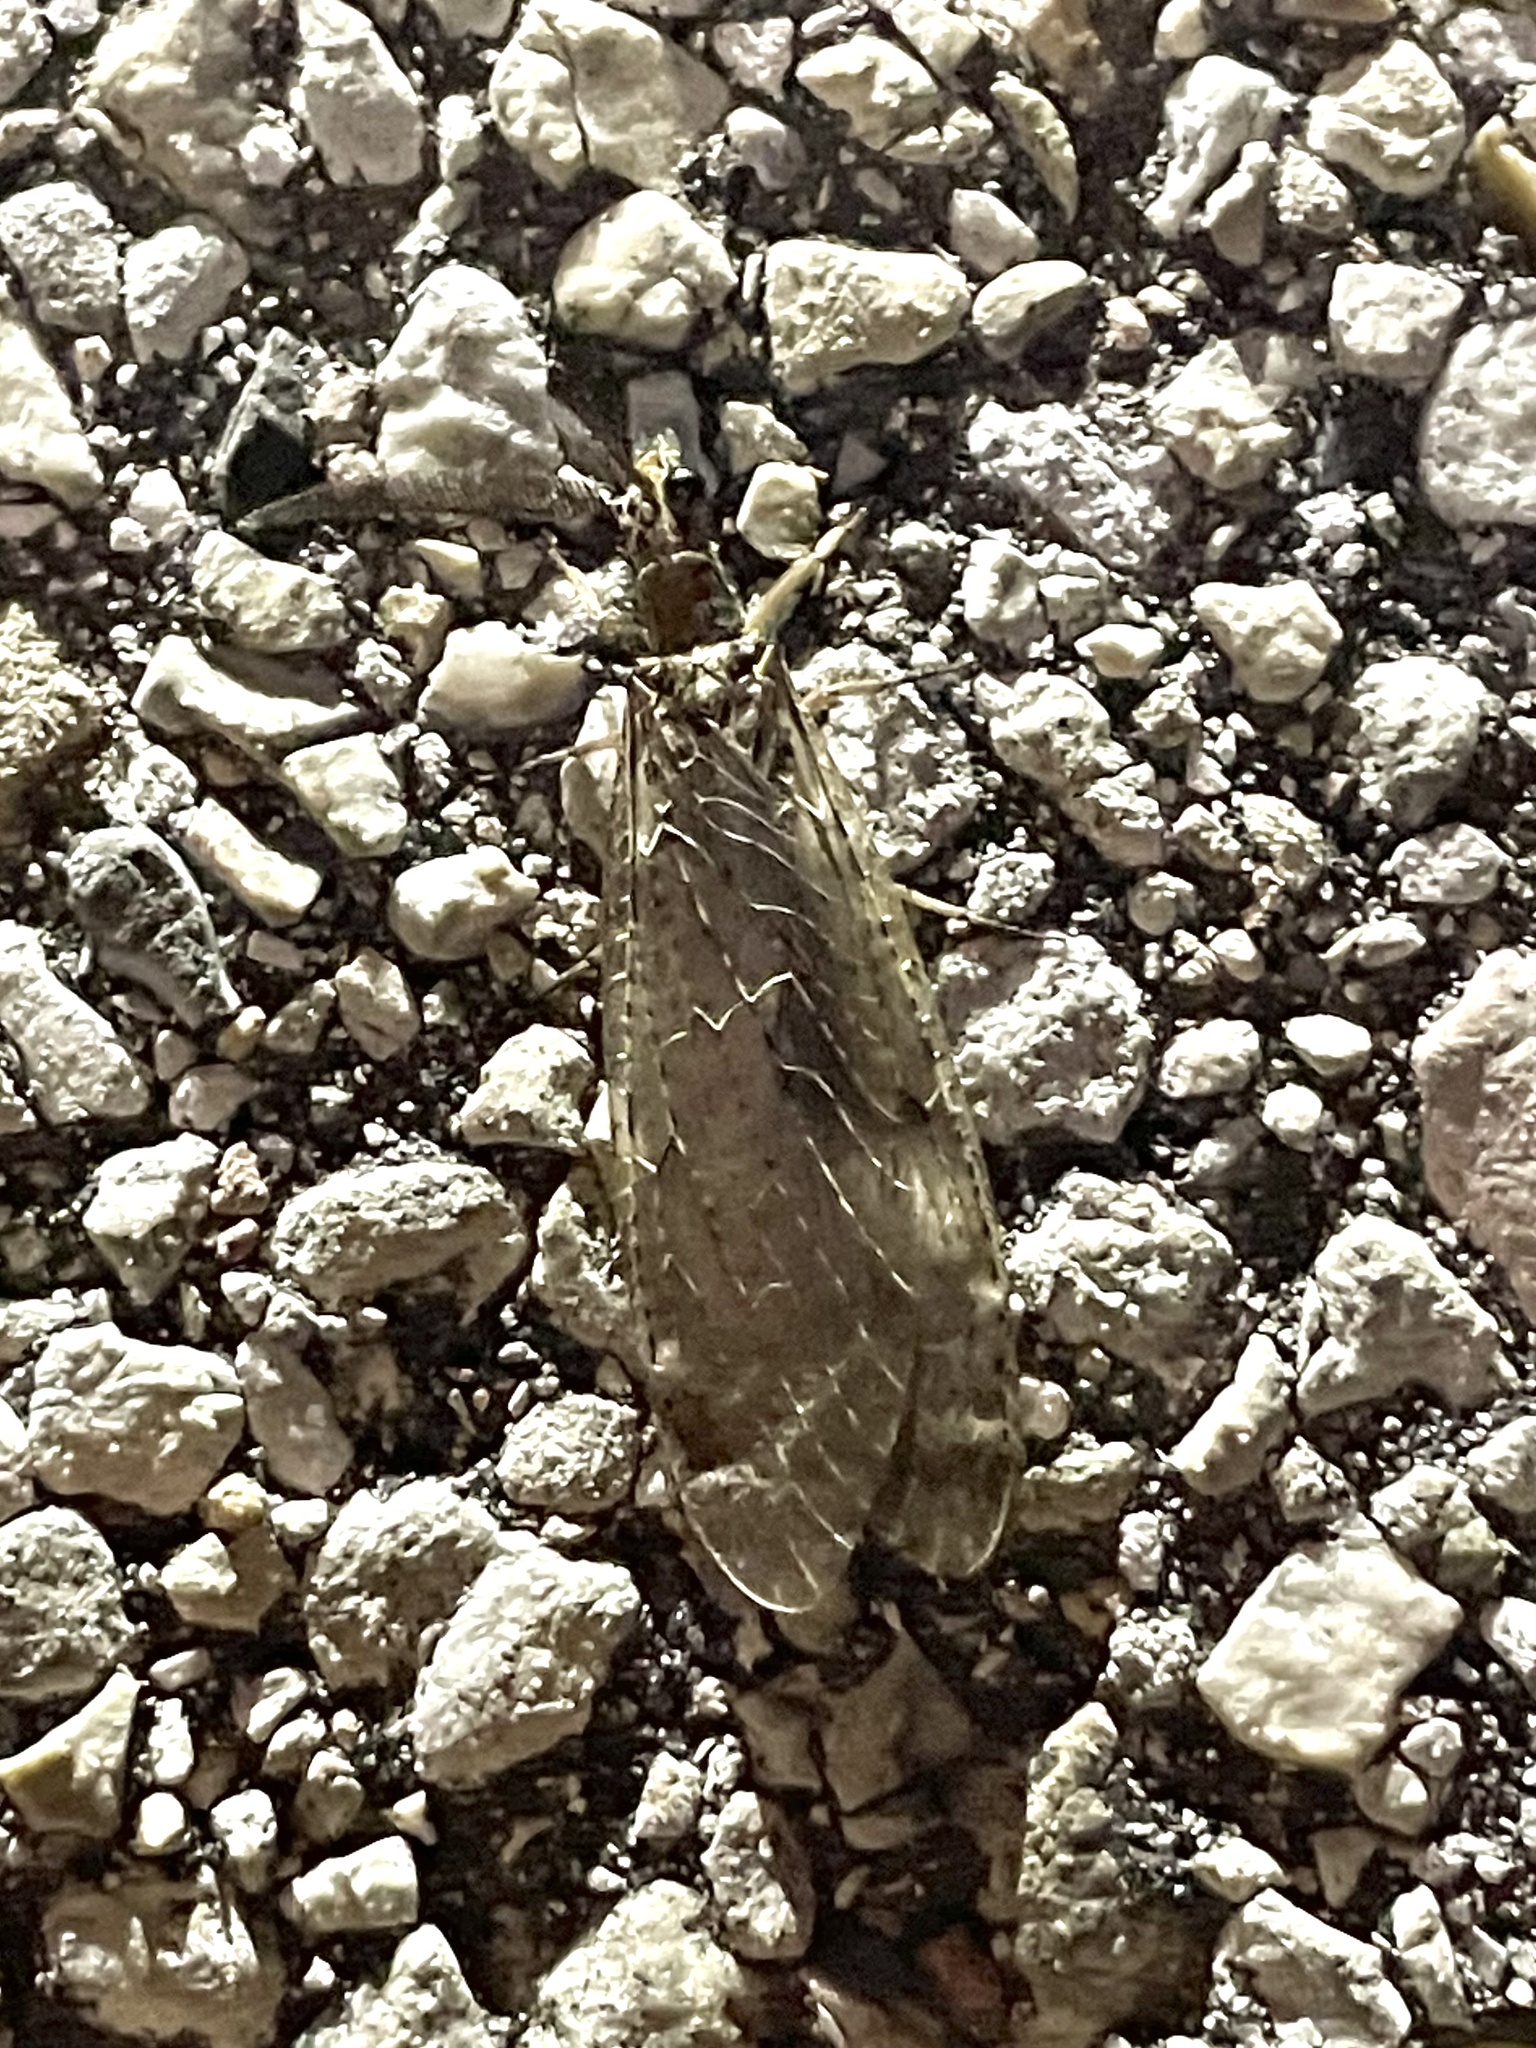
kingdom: Animalia
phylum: Arthropoda
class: Insecta
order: Megaloptera
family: Corydalidae
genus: Chauliodes
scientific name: Chauliodes rastricornis
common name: Spring fishfly
